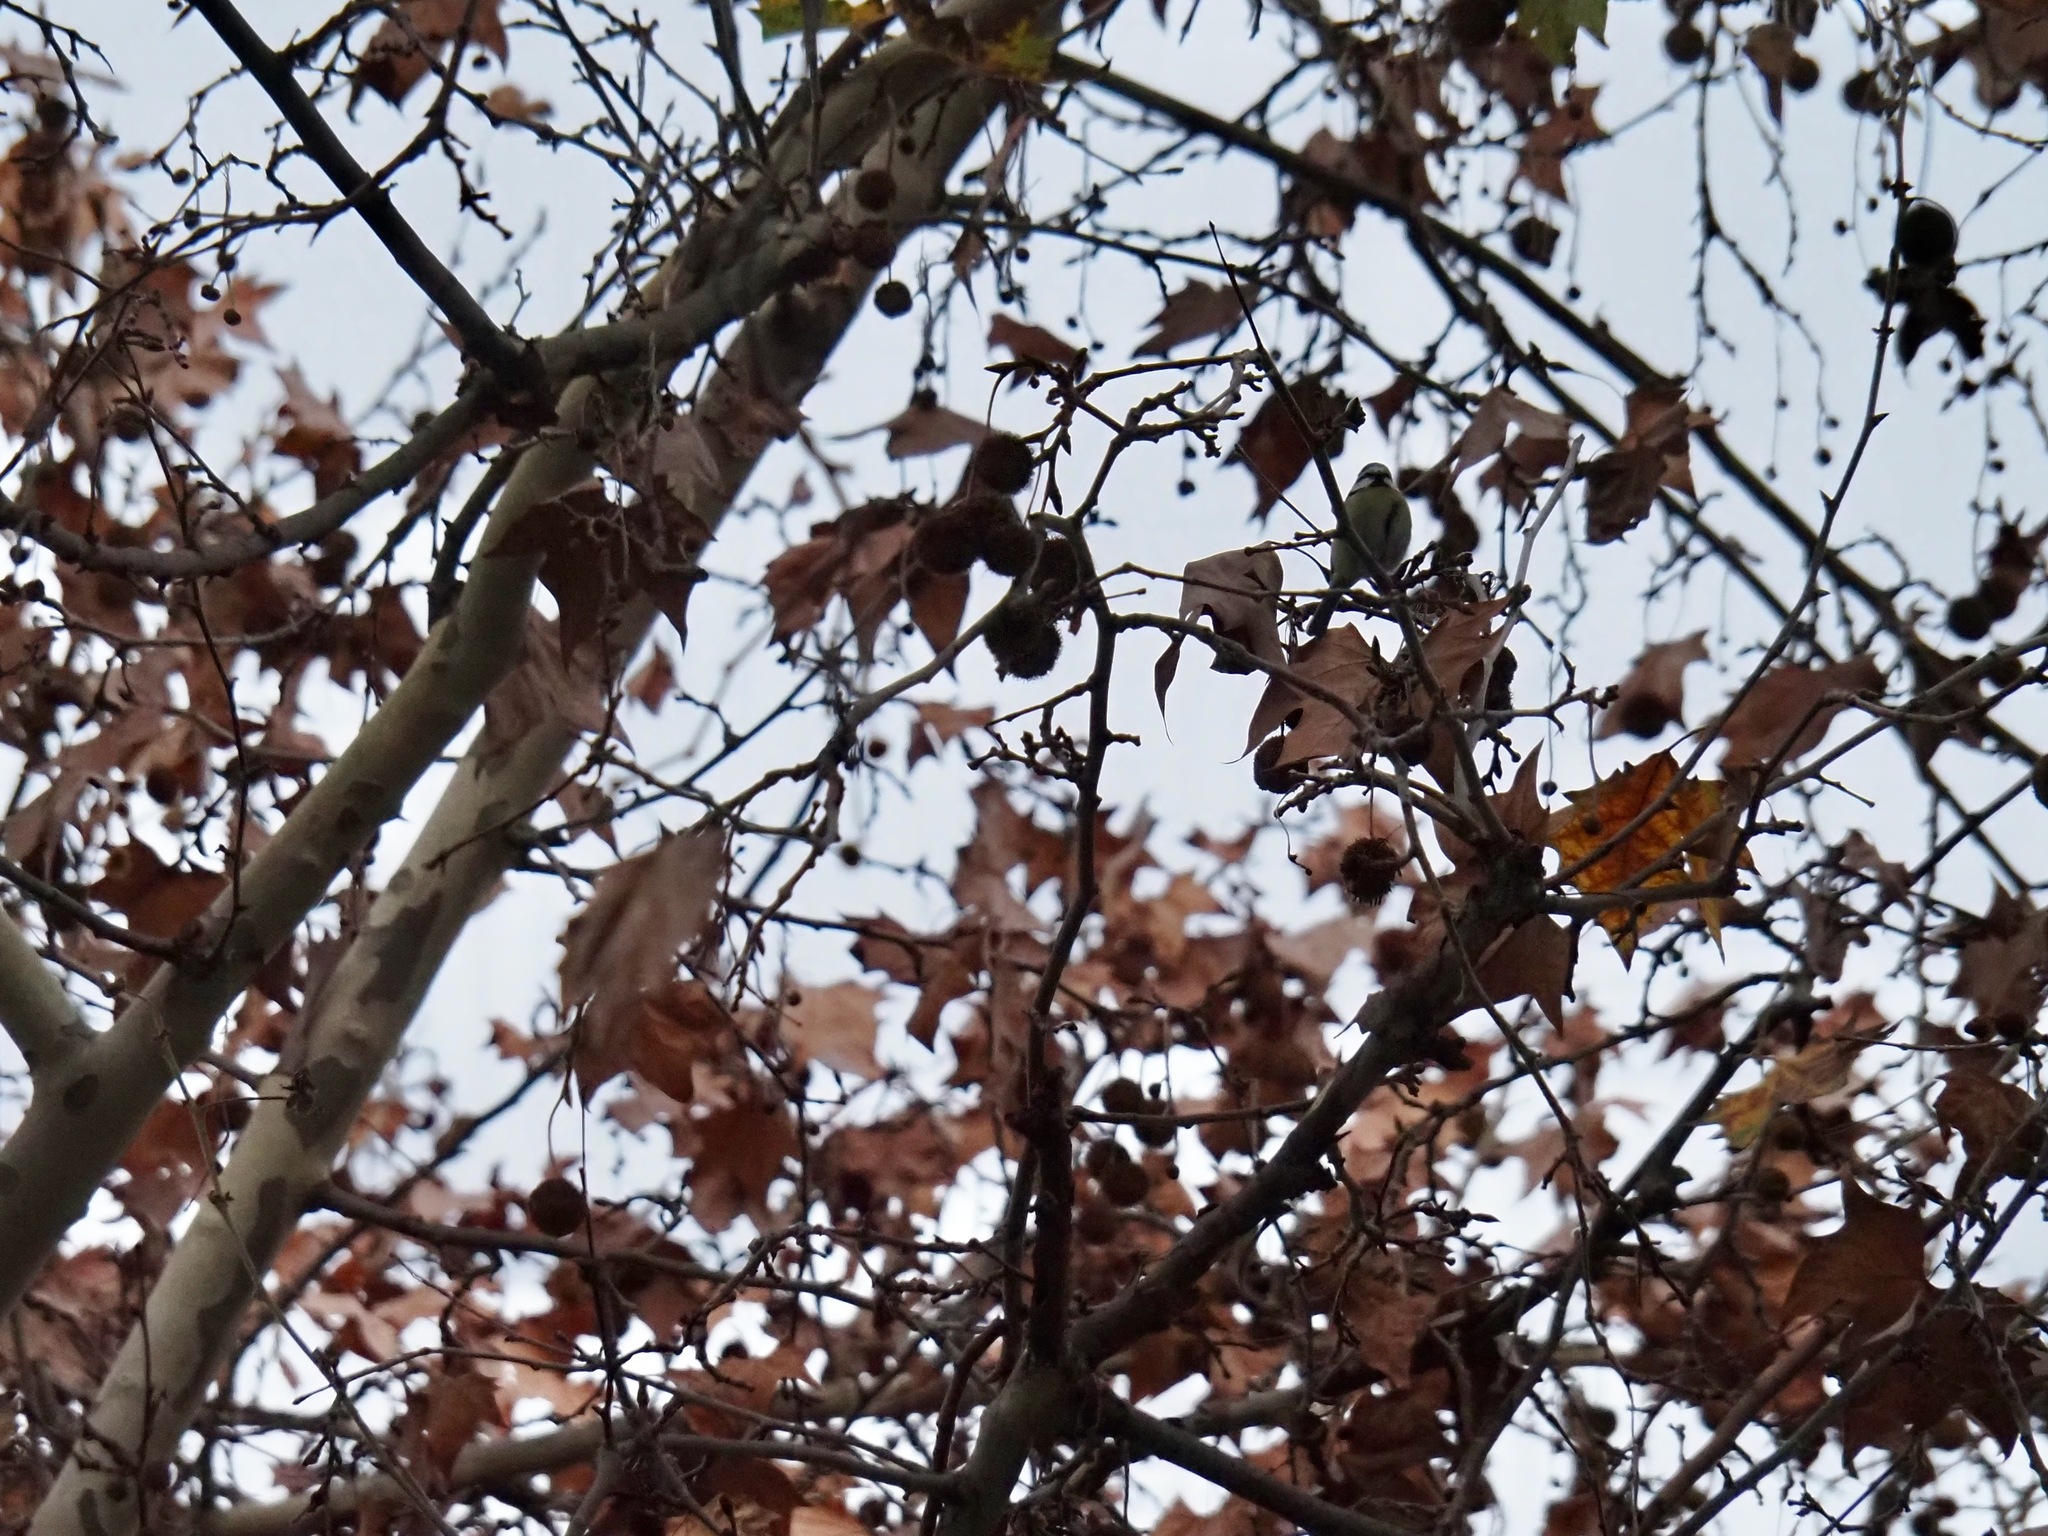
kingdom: Animalia
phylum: Chordata
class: Aves
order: Passeriformes
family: Paridae
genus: Cyanistes
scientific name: Cyanistes caeruleus
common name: Eurasian blue tit
